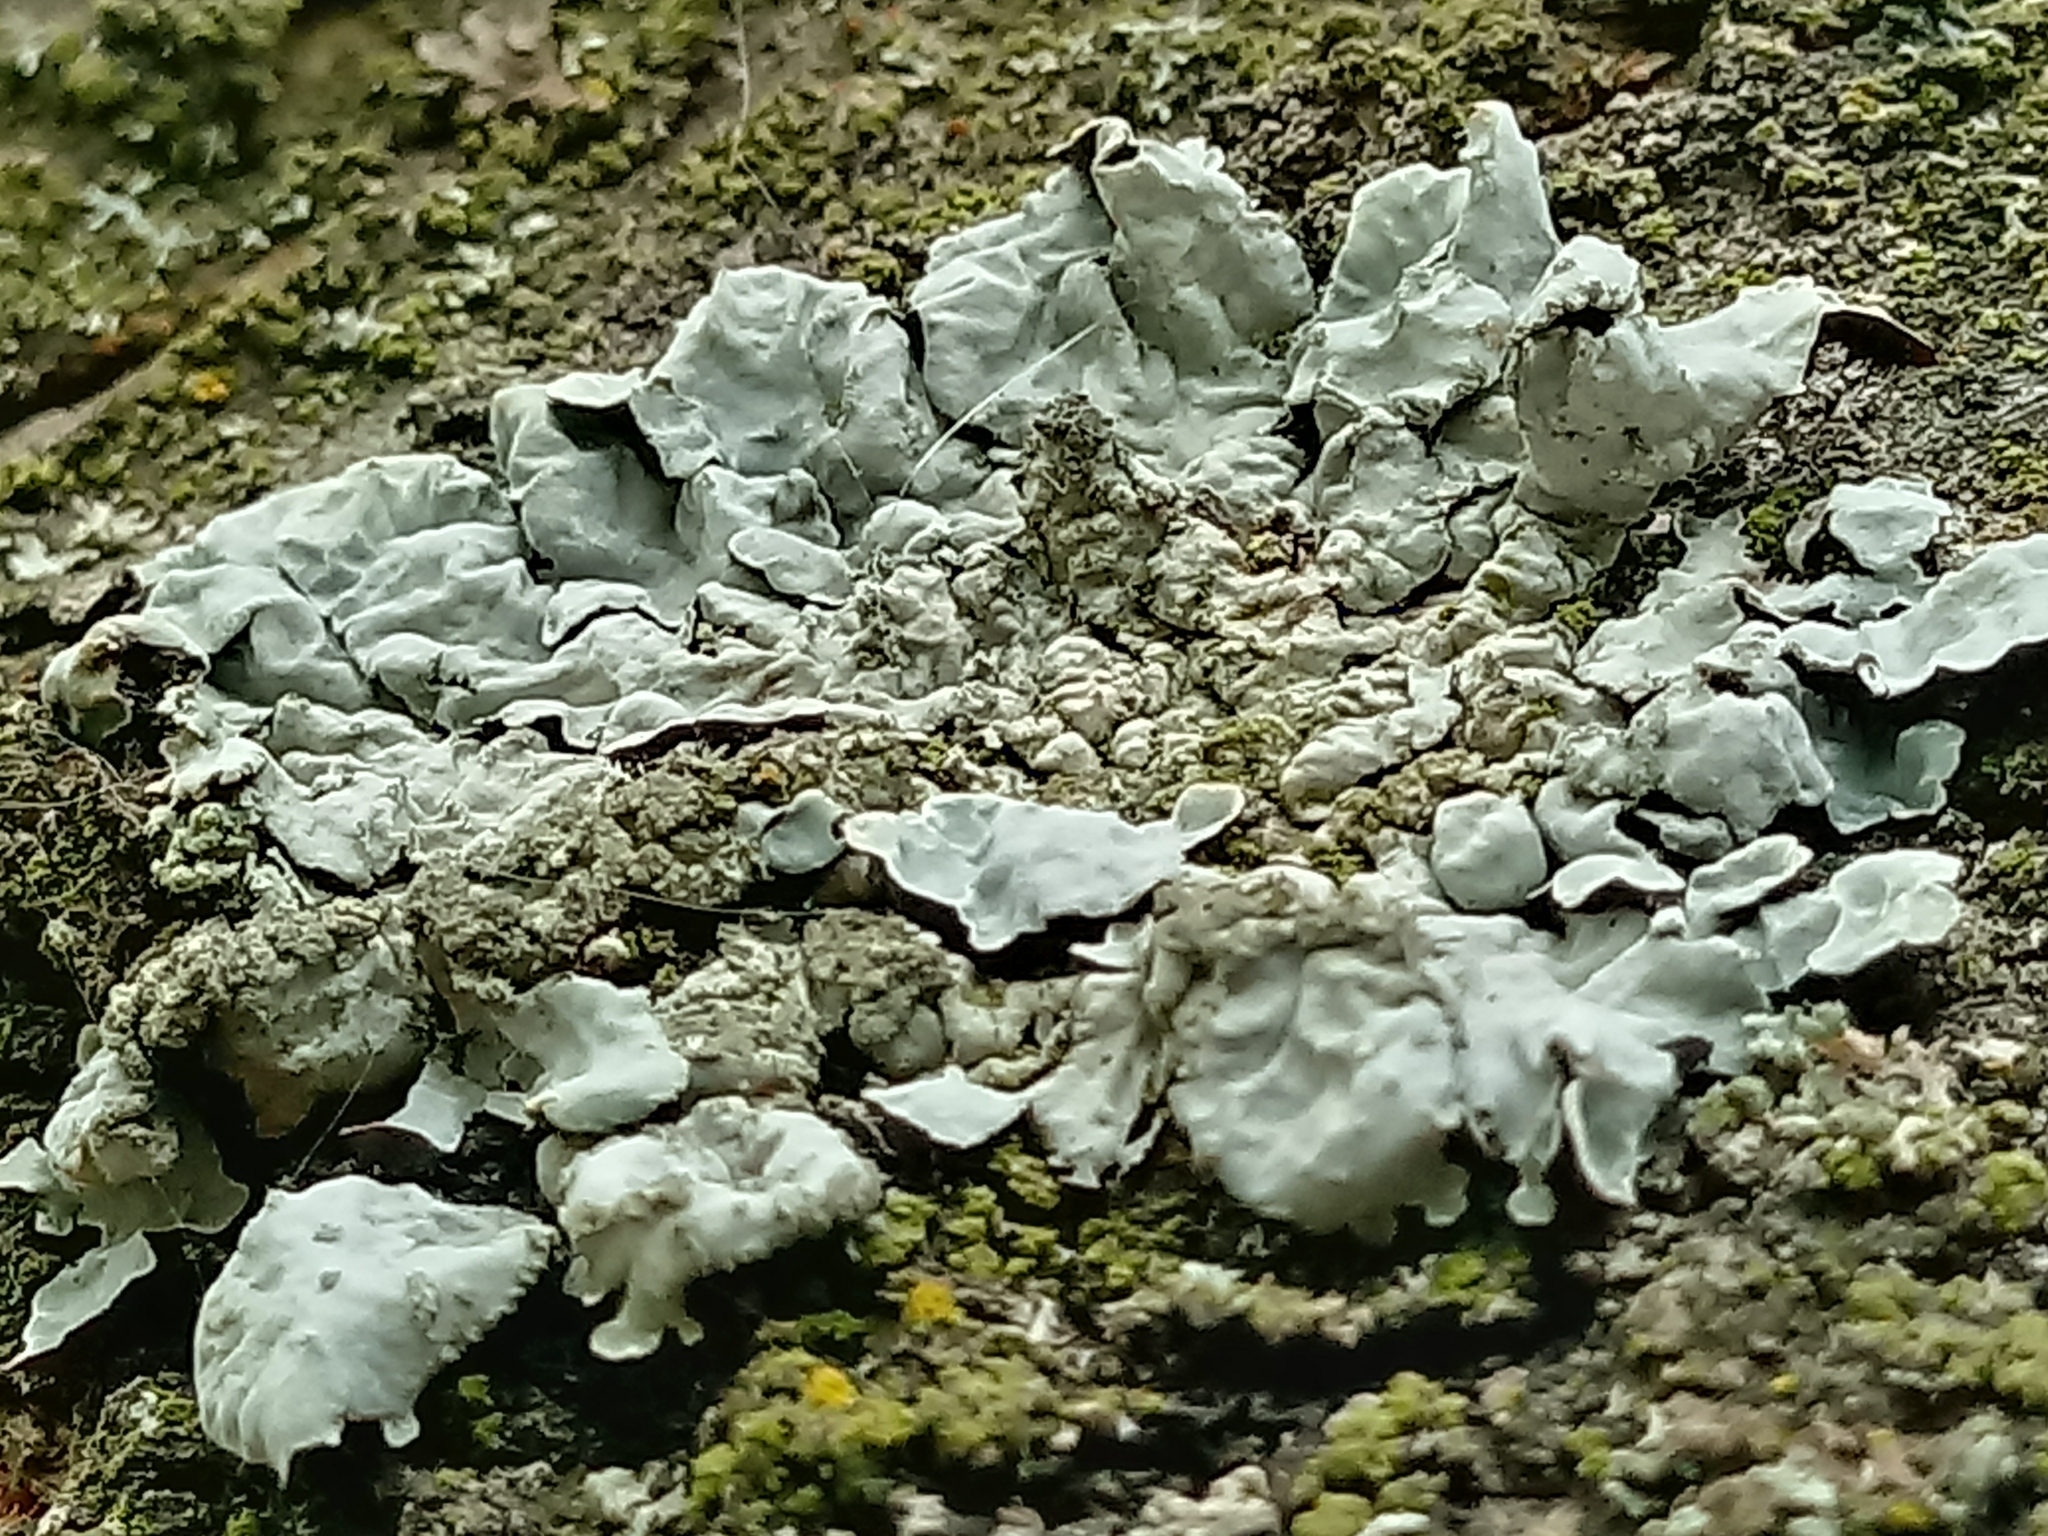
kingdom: Fungi
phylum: Ascomycota
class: Lecanoromycetes
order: Lecanorales
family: Parmeliaceae
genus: Parmelia
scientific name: Parmelia sulcata
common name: Netted shield lichen
